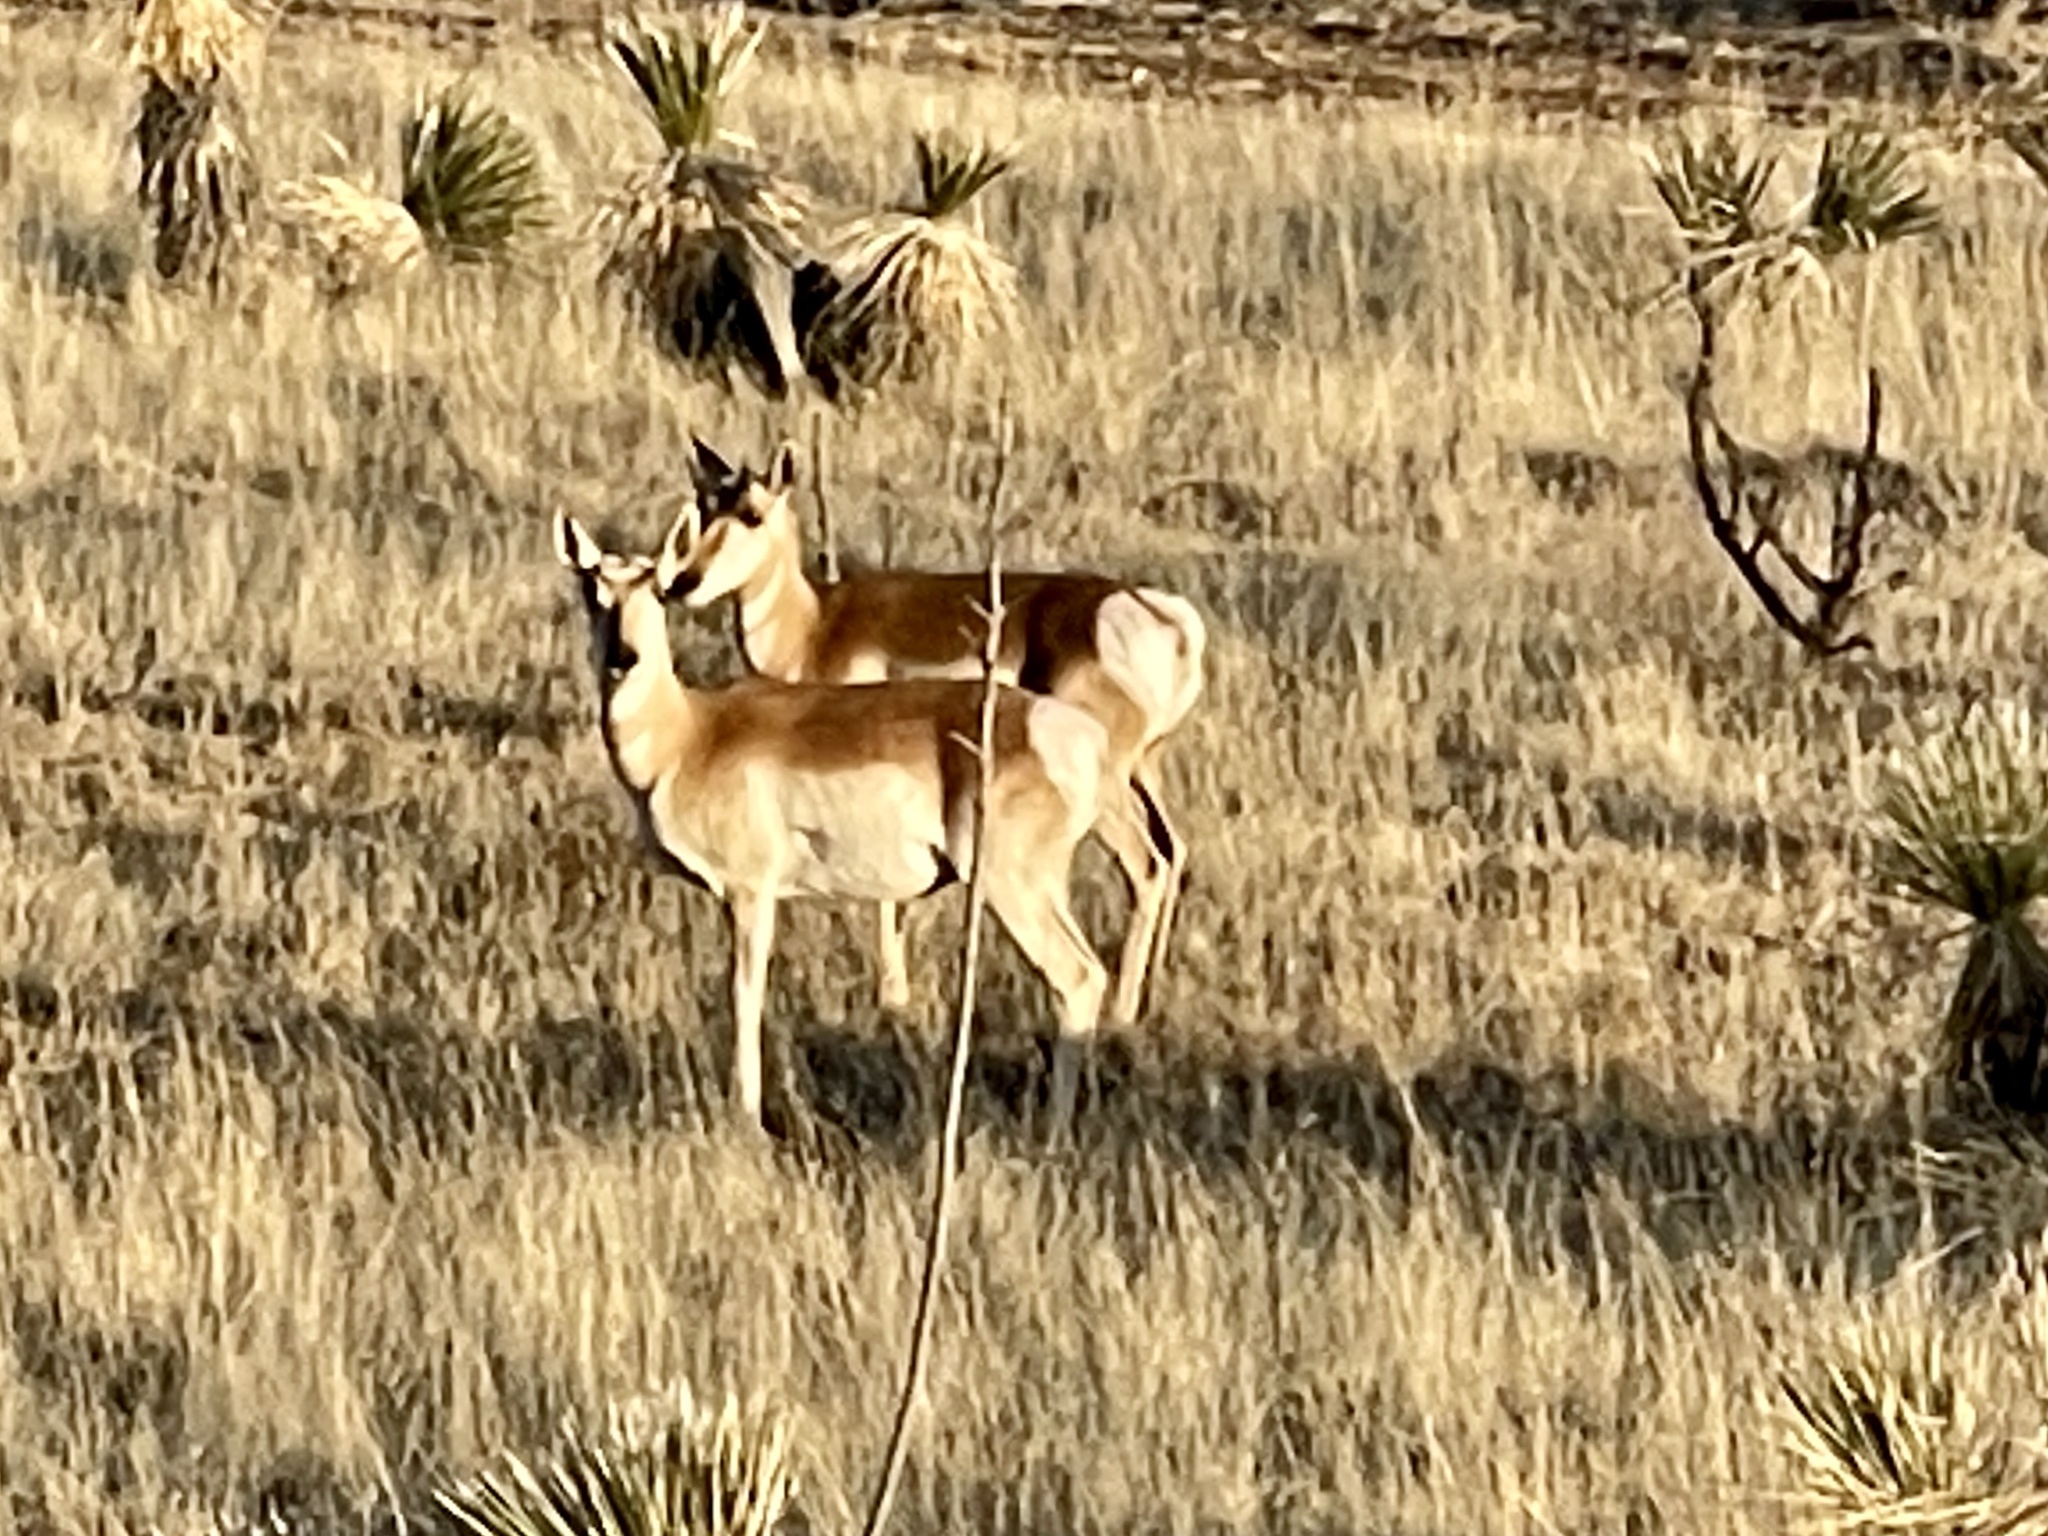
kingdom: Animalia
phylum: Chordata
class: Mammalia
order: Artiodactyla
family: Antilocapridae
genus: Antilocapra
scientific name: Antilocapra americana
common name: Pronghorn
